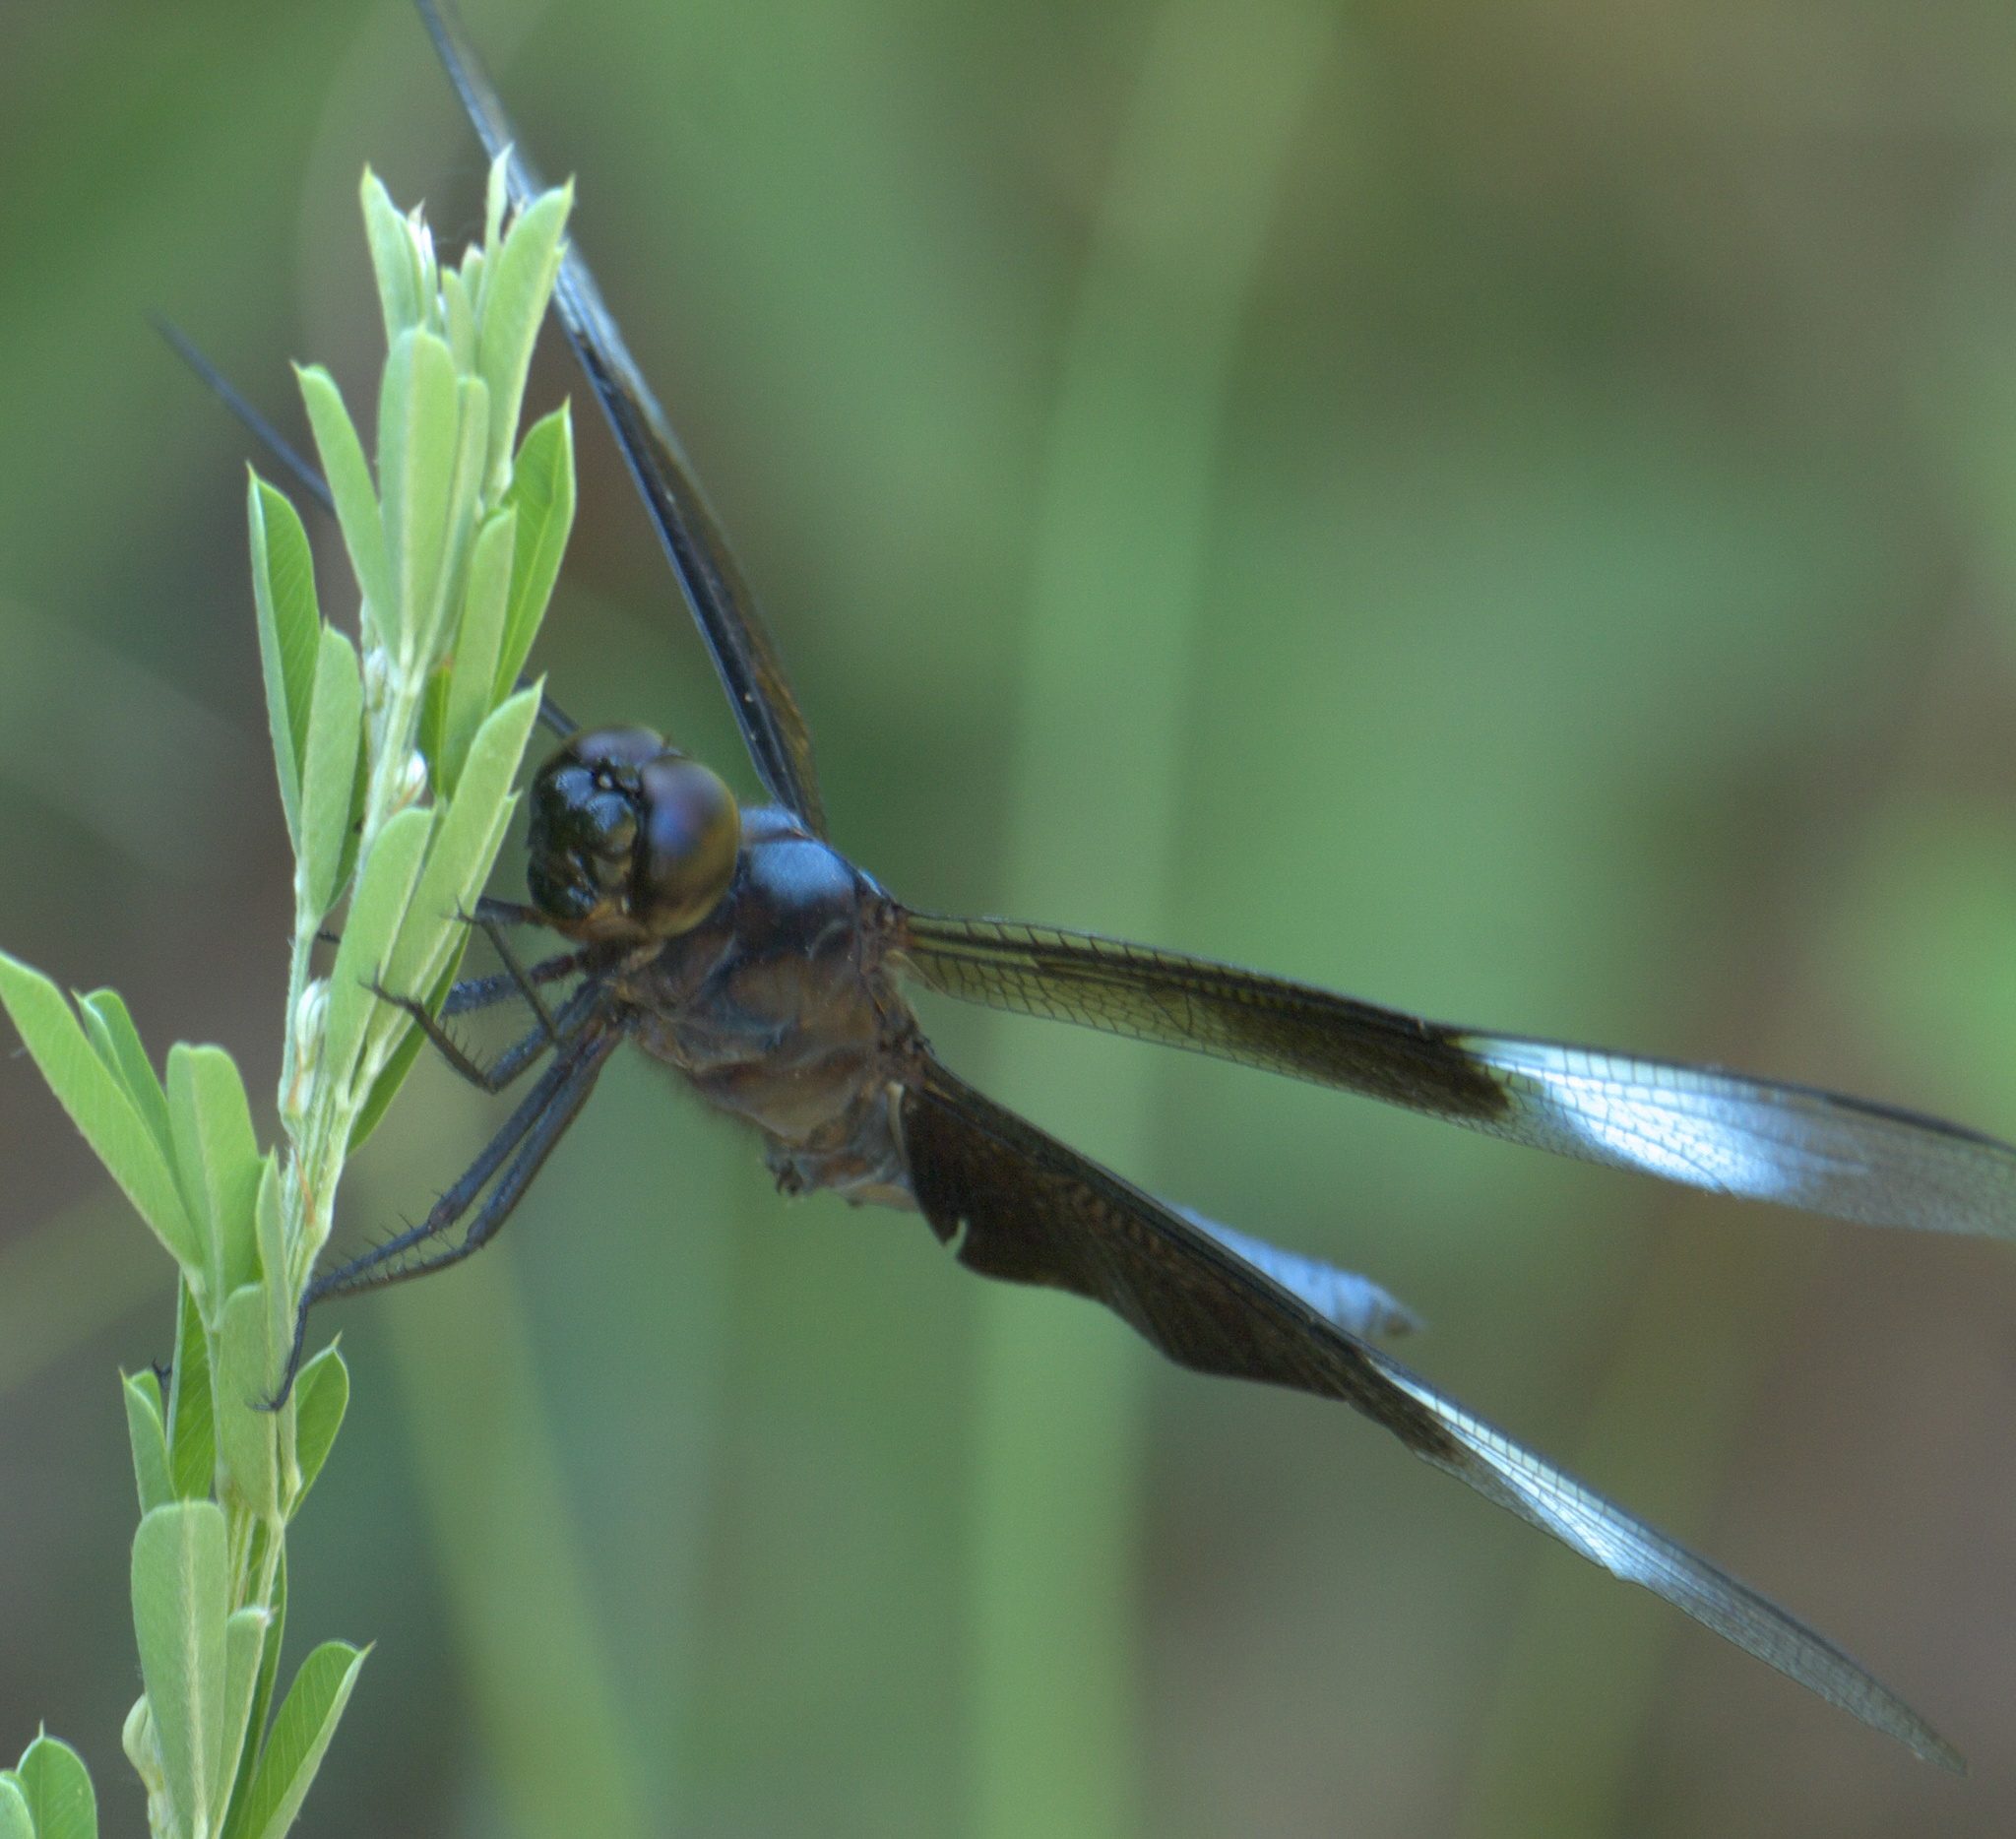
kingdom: Animalia
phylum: Arthropoda
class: Insecta
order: Odonata
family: Libellulidae
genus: Libellula
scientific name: Libellula luctuosa
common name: Widow skimmer
